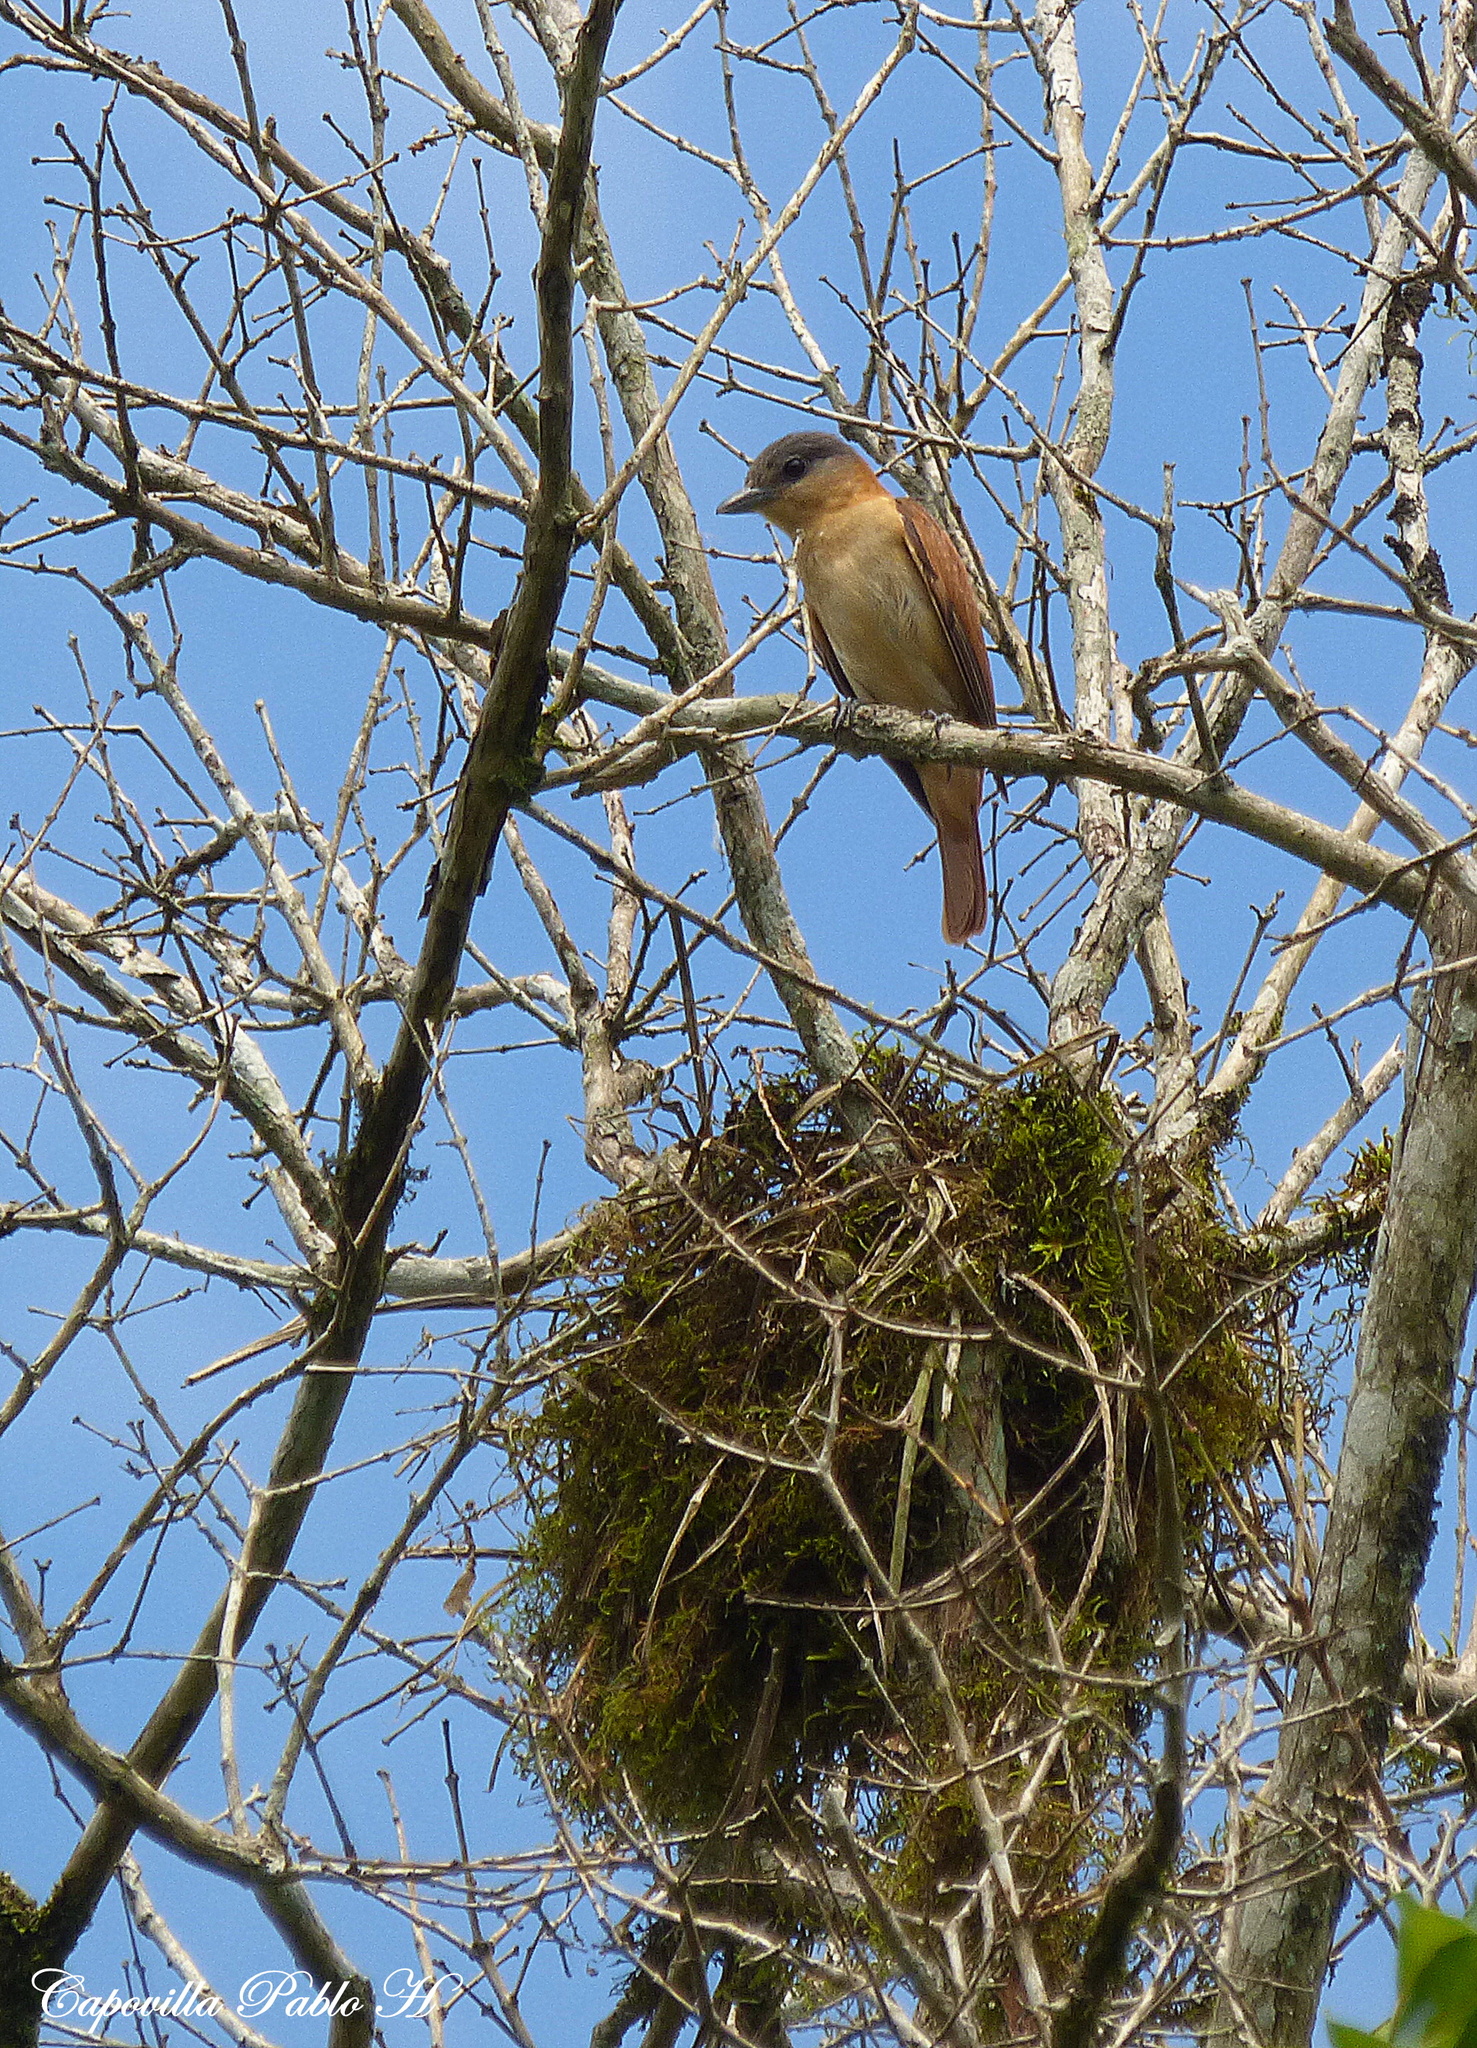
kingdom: Animalia
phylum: Chordata
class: Aves
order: Passeriformes
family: Cotingidae
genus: Pachyramphus
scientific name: Pachyramphus validus
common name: Crested becard
